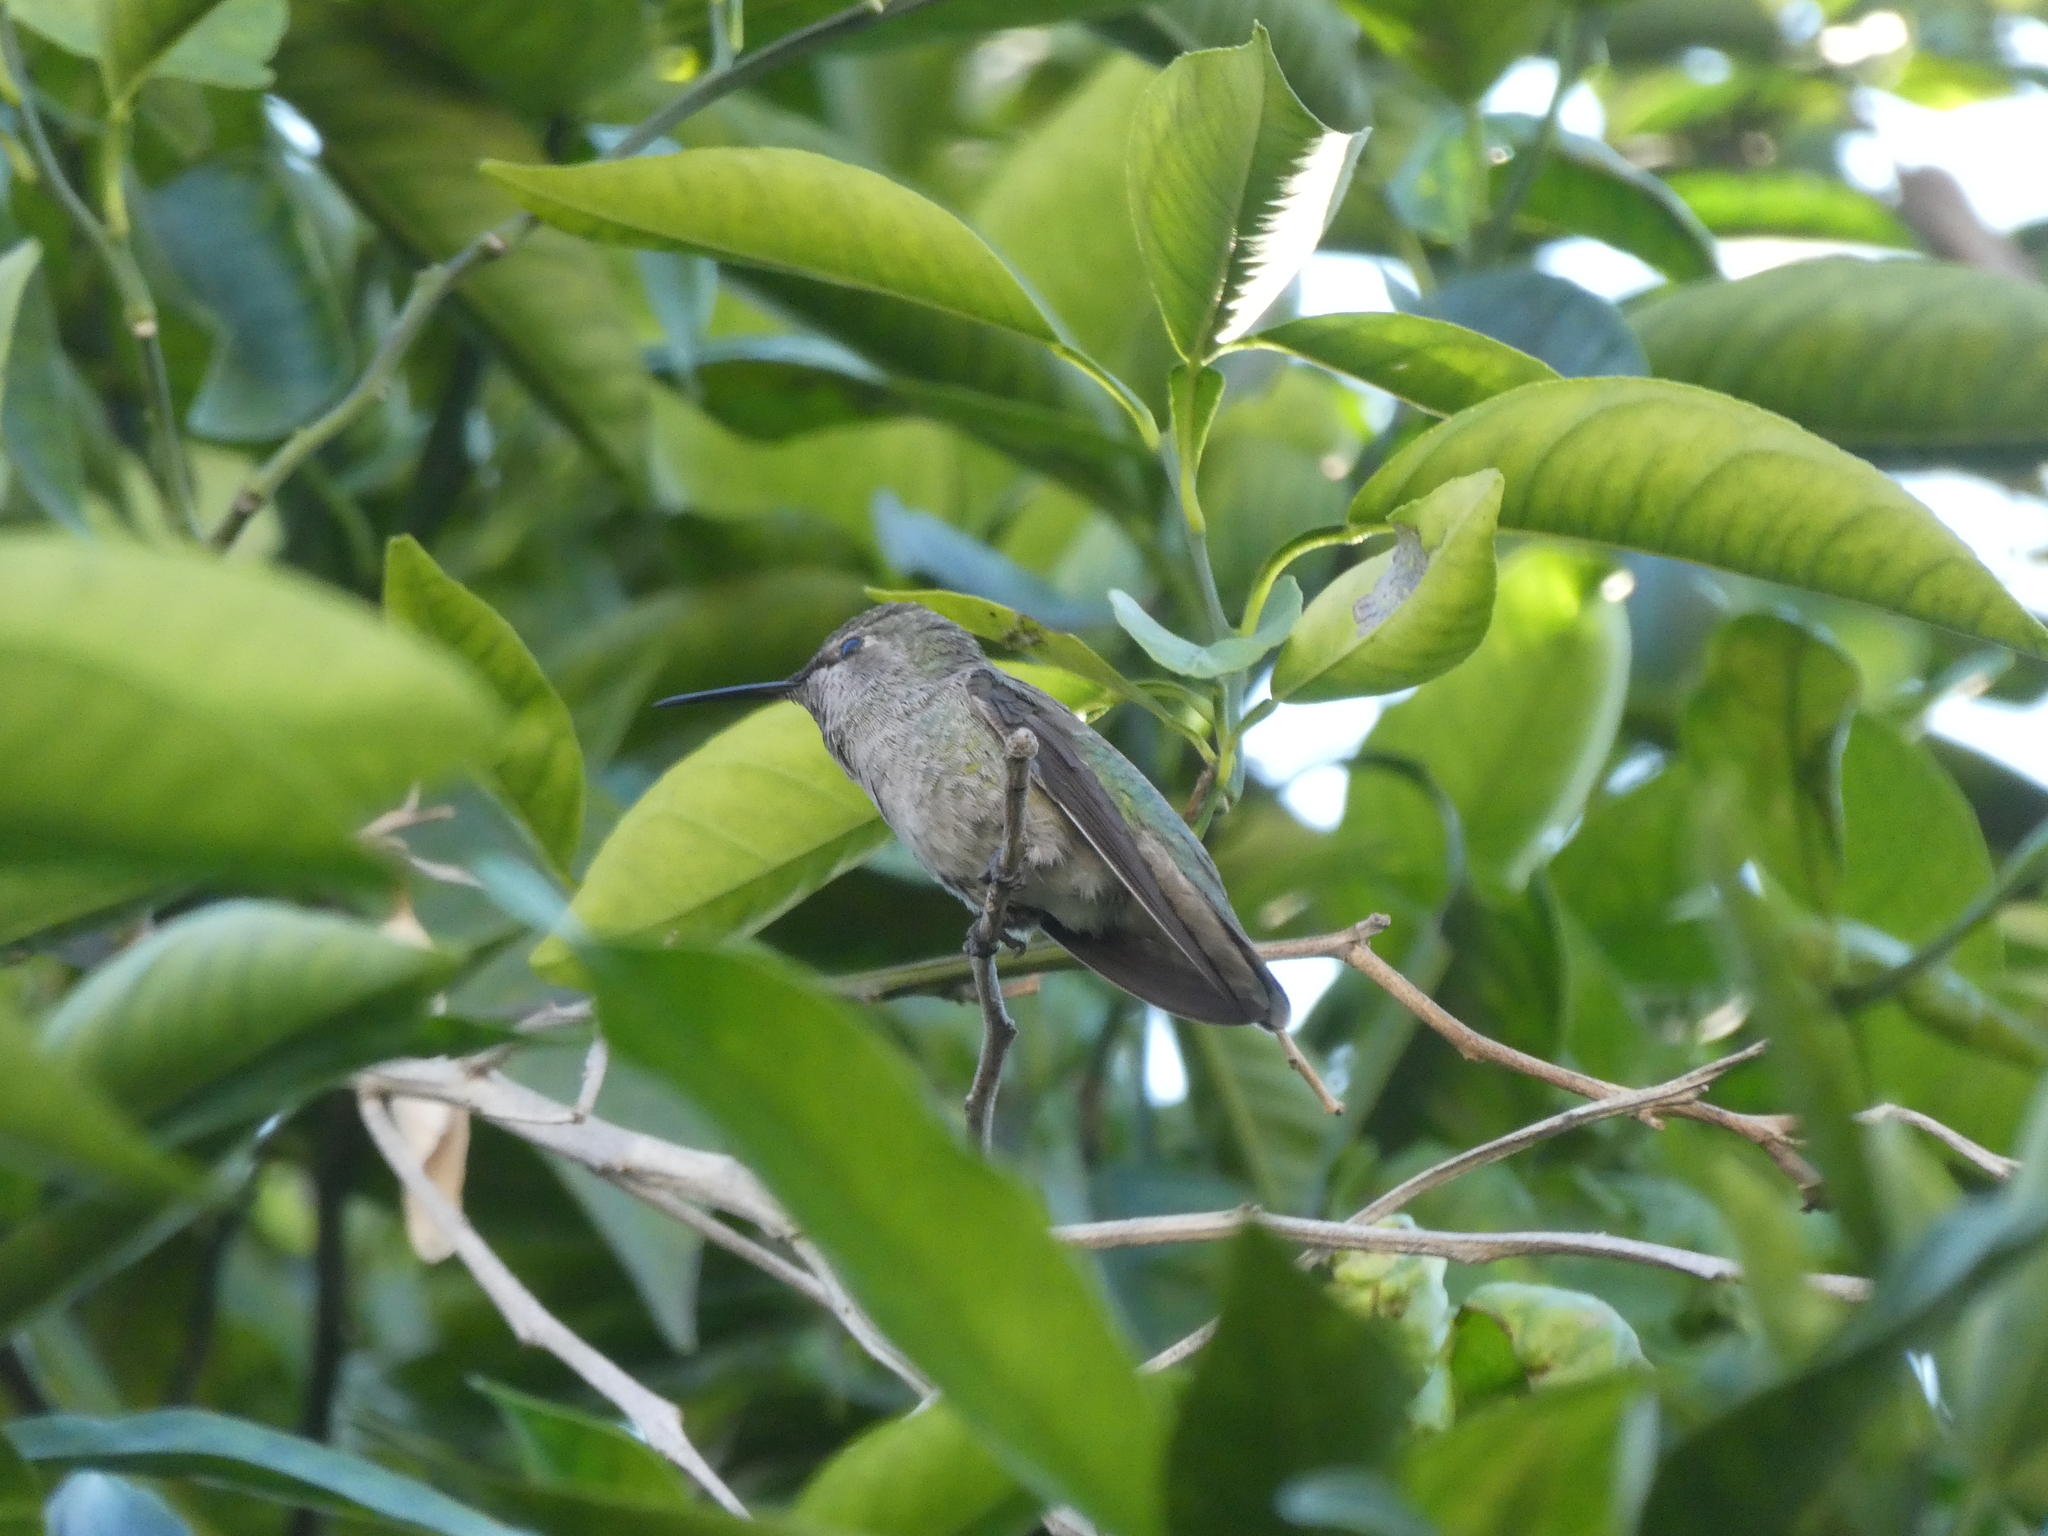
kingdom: Animalia
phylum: Chordata
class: Aves
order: Apodiformes
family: Trochilidae
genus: Calypte
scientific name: Calypte anna
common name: Anna's hummingbird
